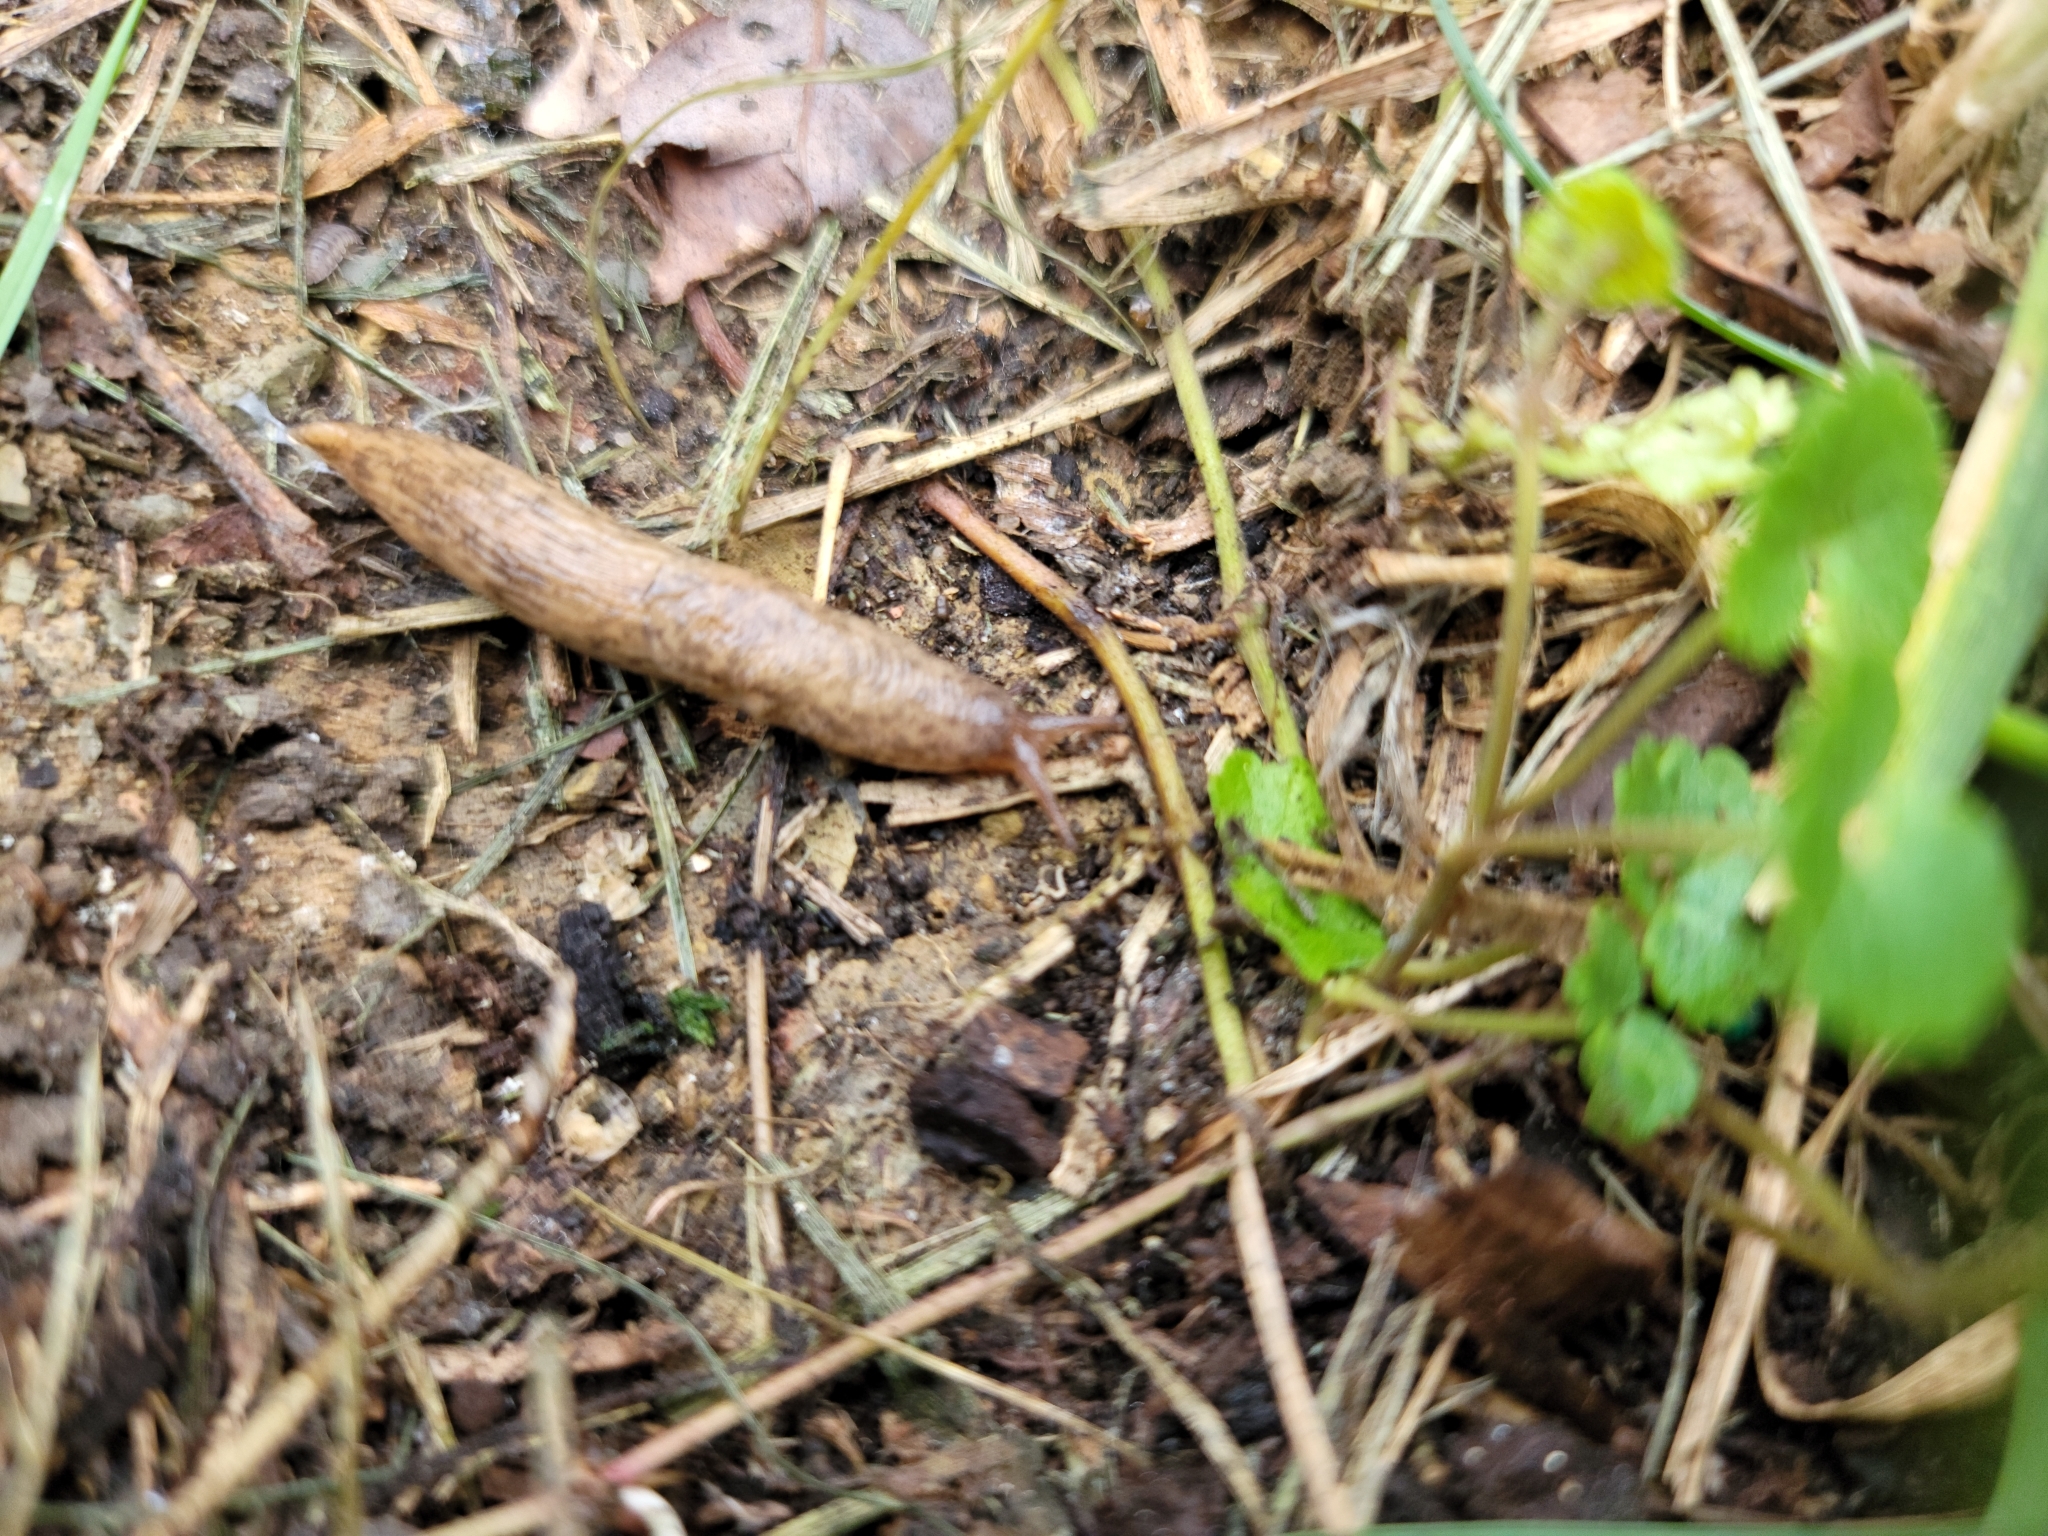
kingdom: Animalia
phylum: Mollusca
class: Gastropoda
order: Stylommatophora
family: Agriolimacidae
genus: Deroceras
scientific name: Deroceras reticulatum
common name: Gray field slug
